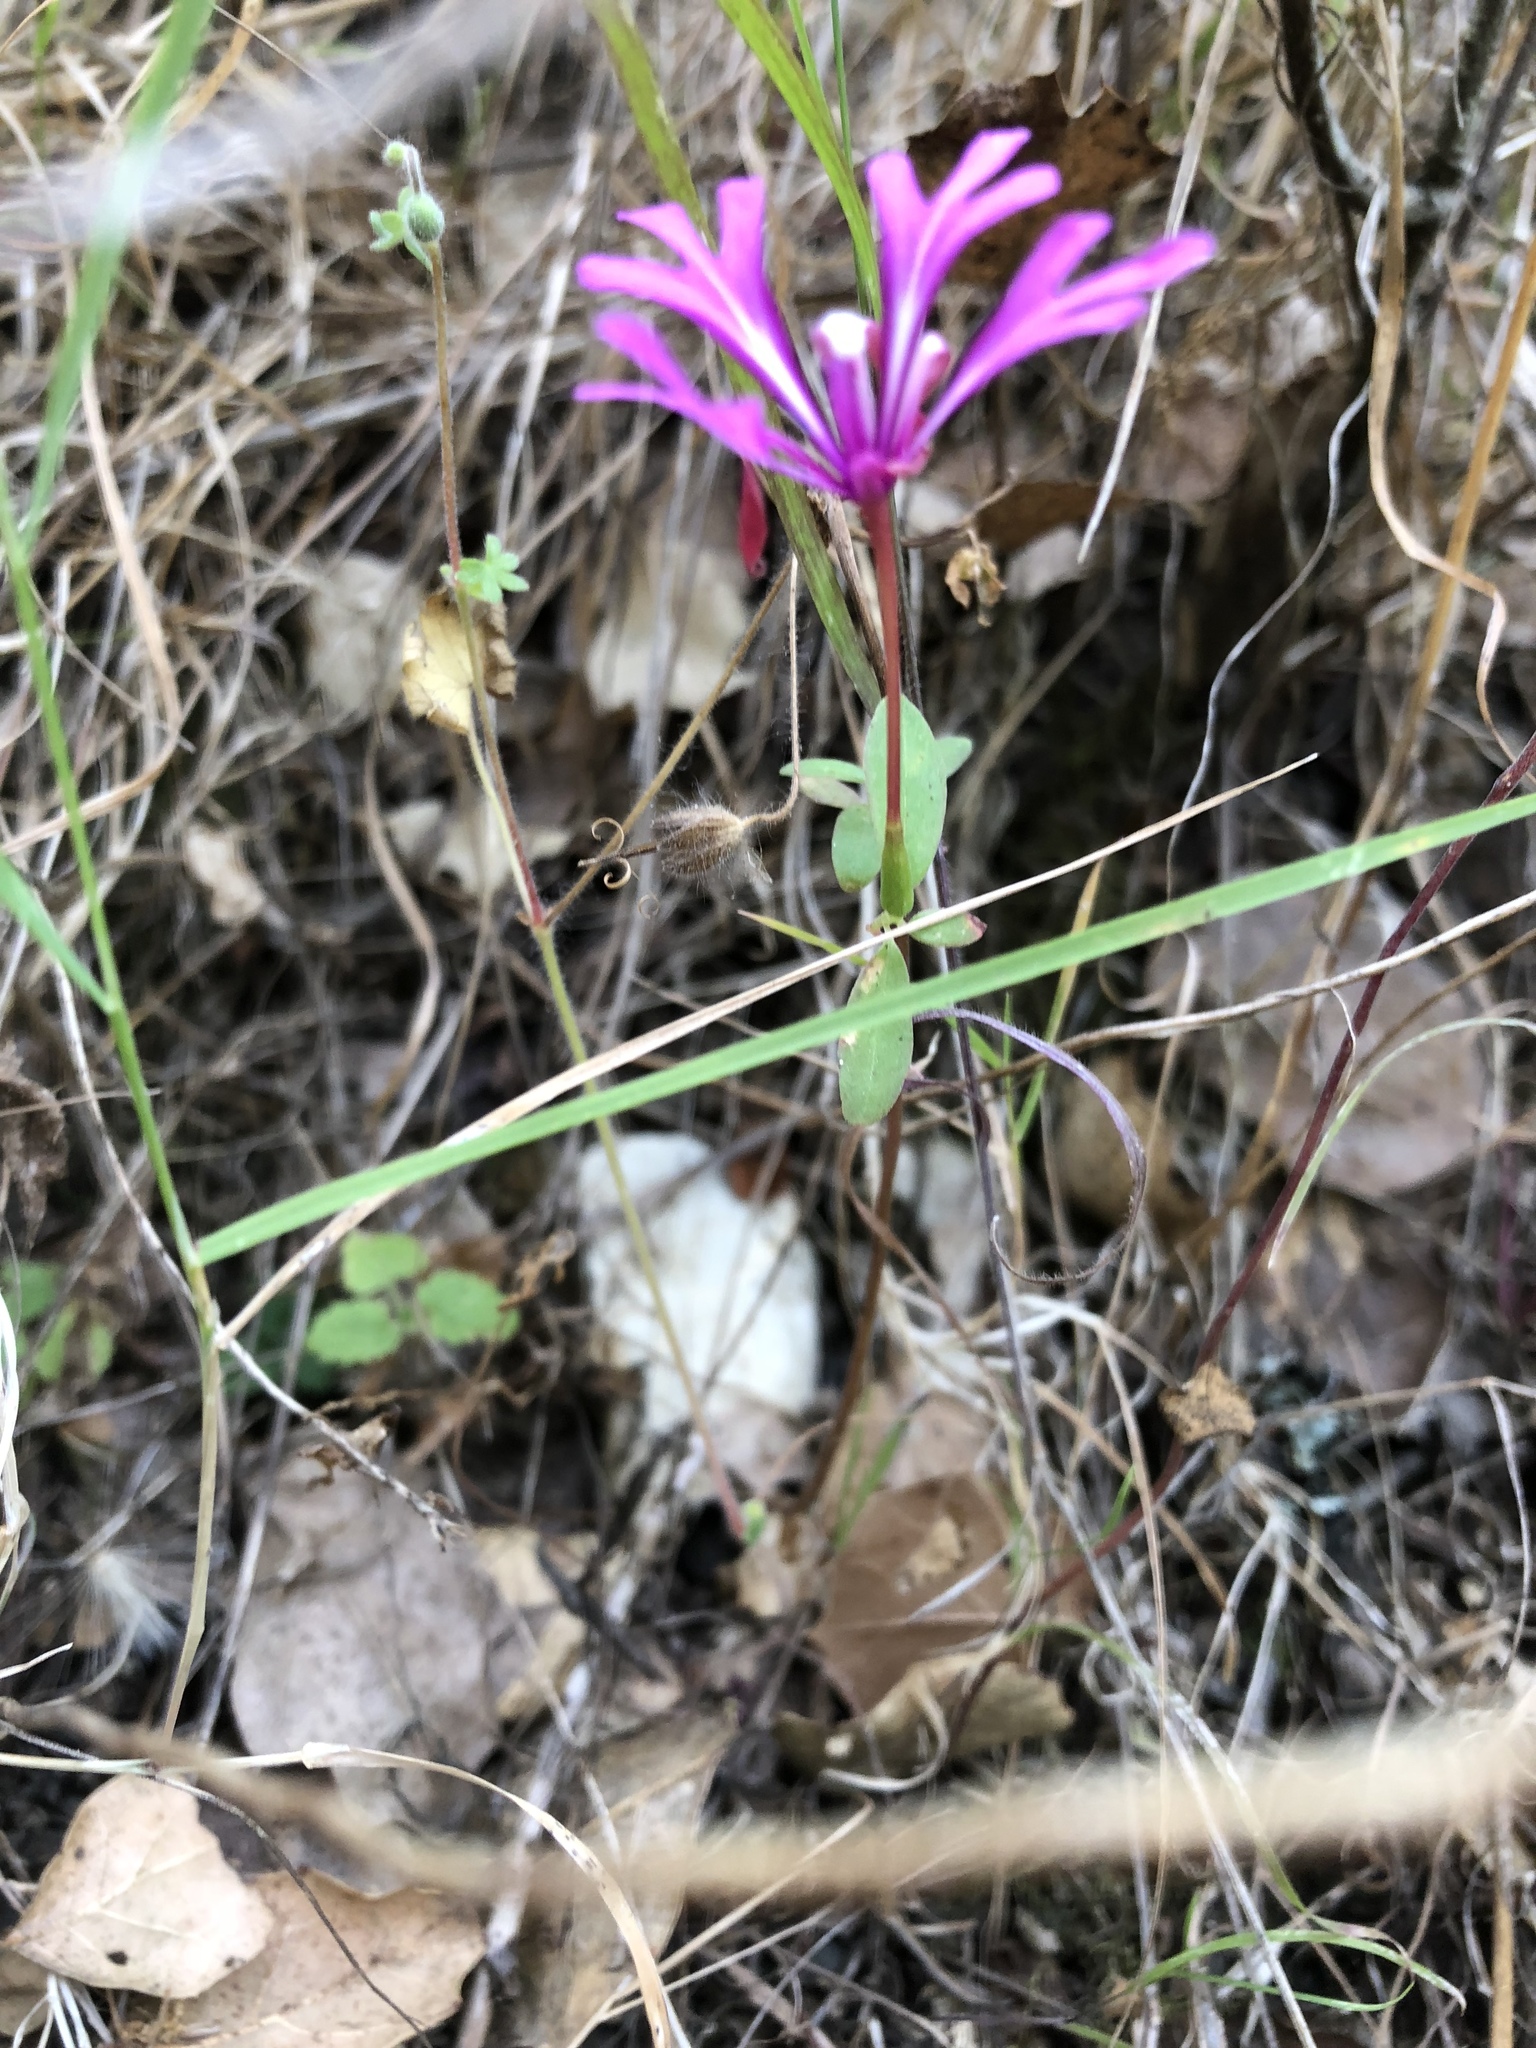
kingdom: Plantae
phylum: Tracheophyta
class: Magnoliopsida
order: Myrtales
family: Onagraceae
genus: Clarkia
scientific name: Clarkia concinna
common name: Red-ribbons
